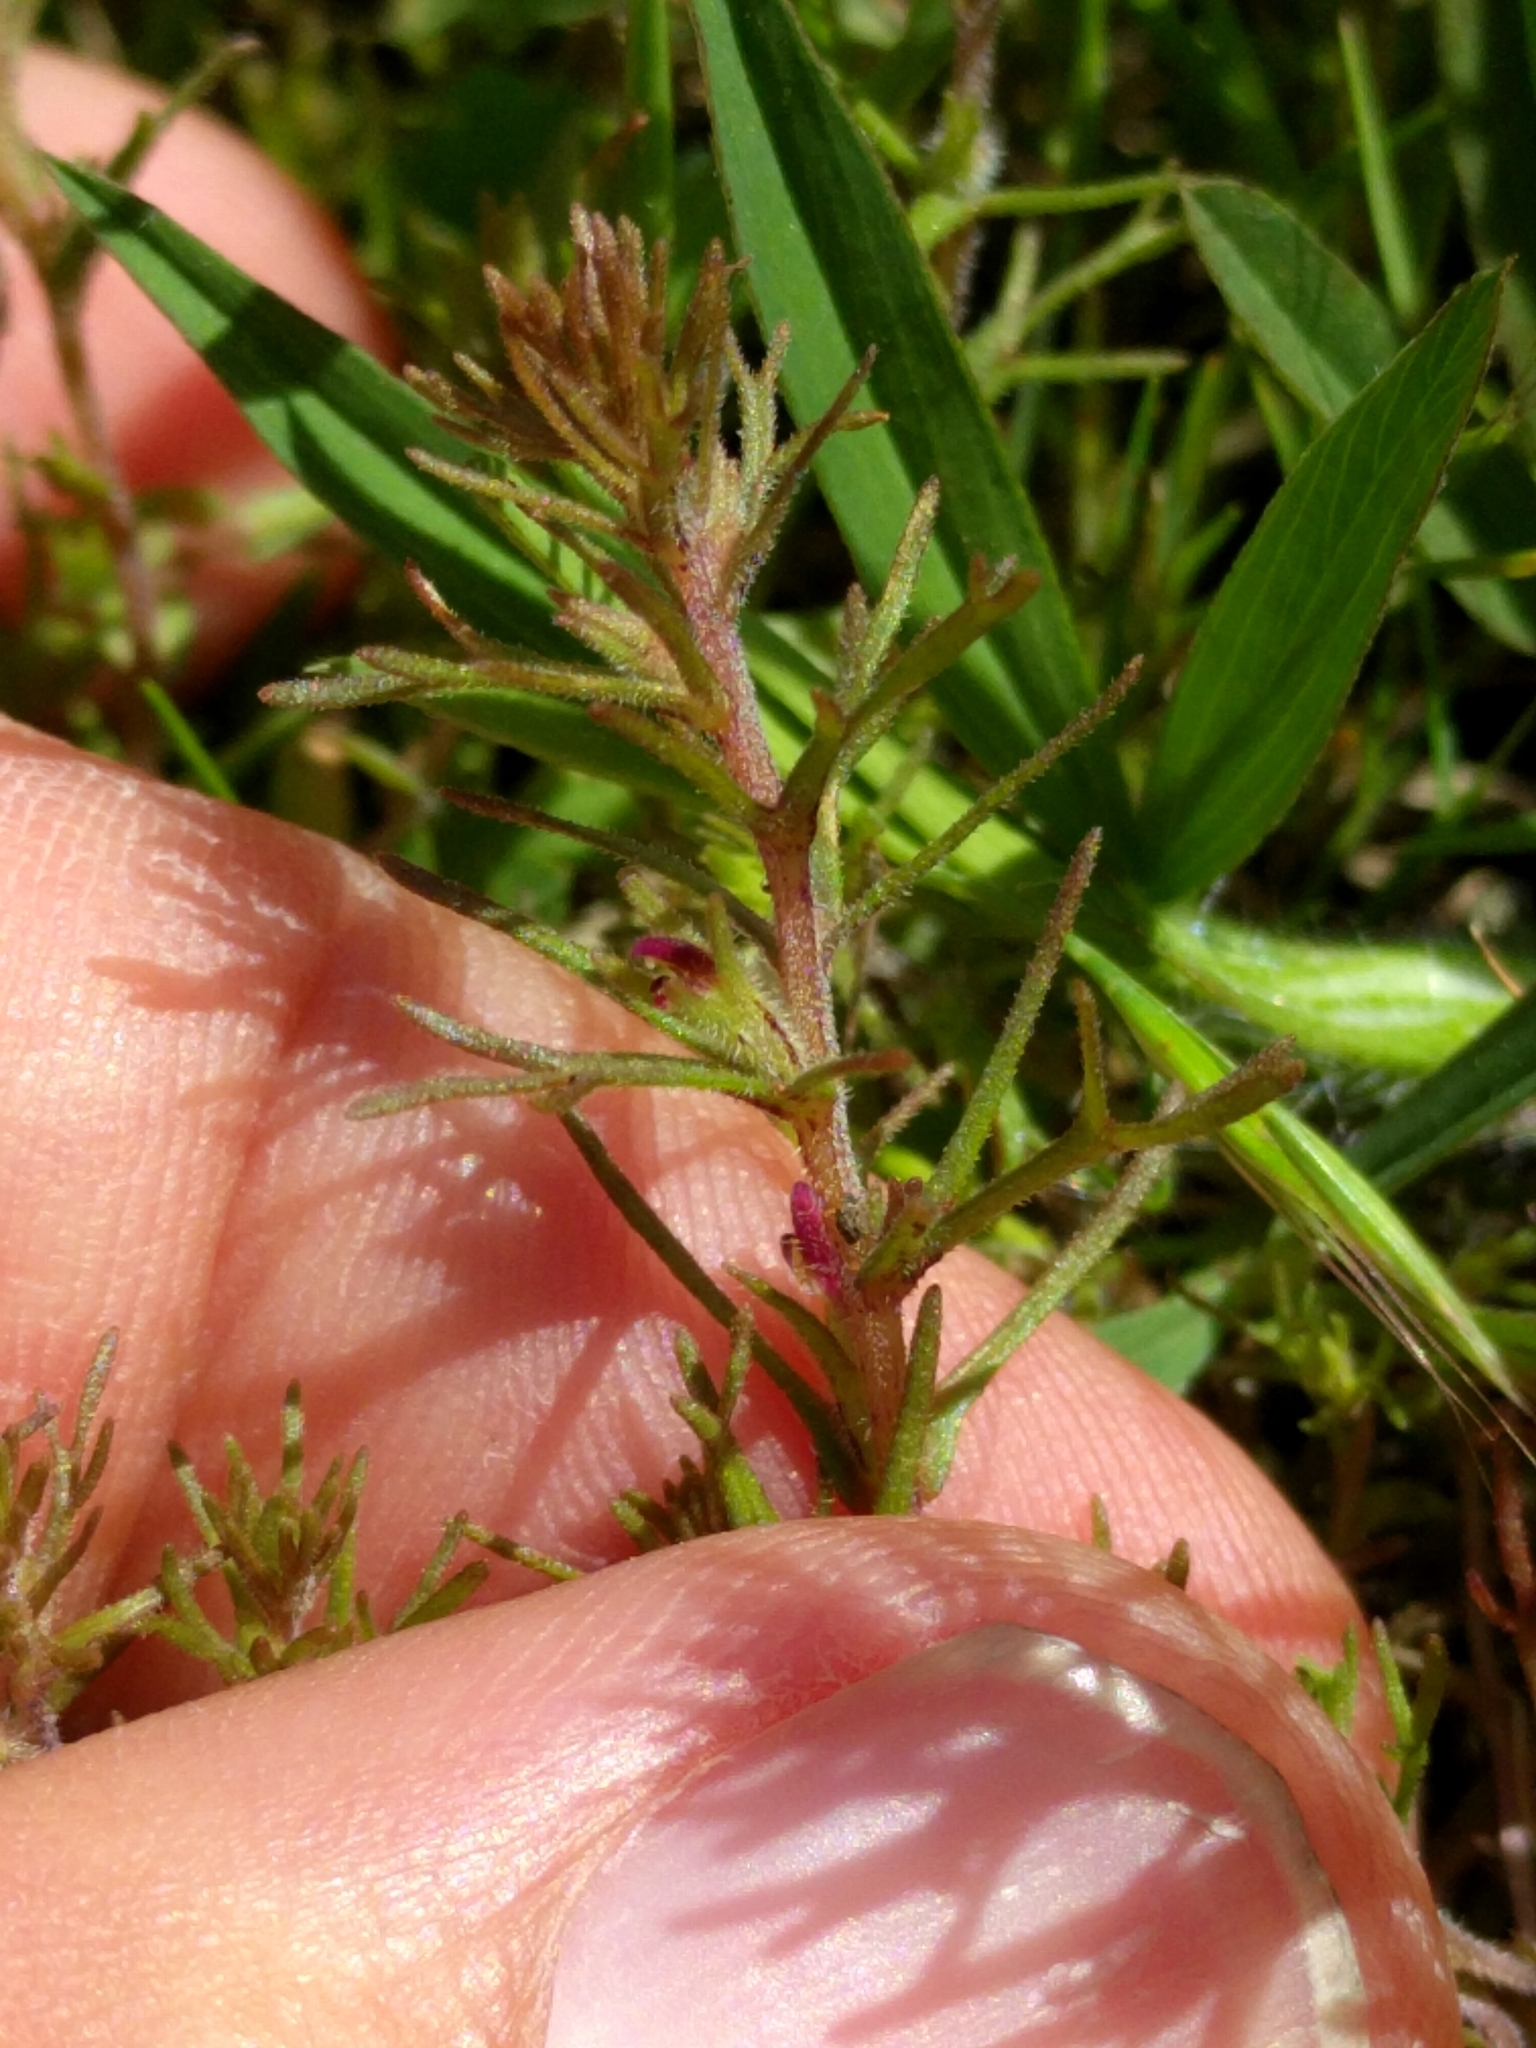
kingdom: Plantae
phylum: Tracheophyta
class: Magnoliopsida
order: Lamiales
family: Orobanchaceae
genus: Triphysaria
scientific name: Triphysaria pusilla
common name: Dwarf false owl-clover
